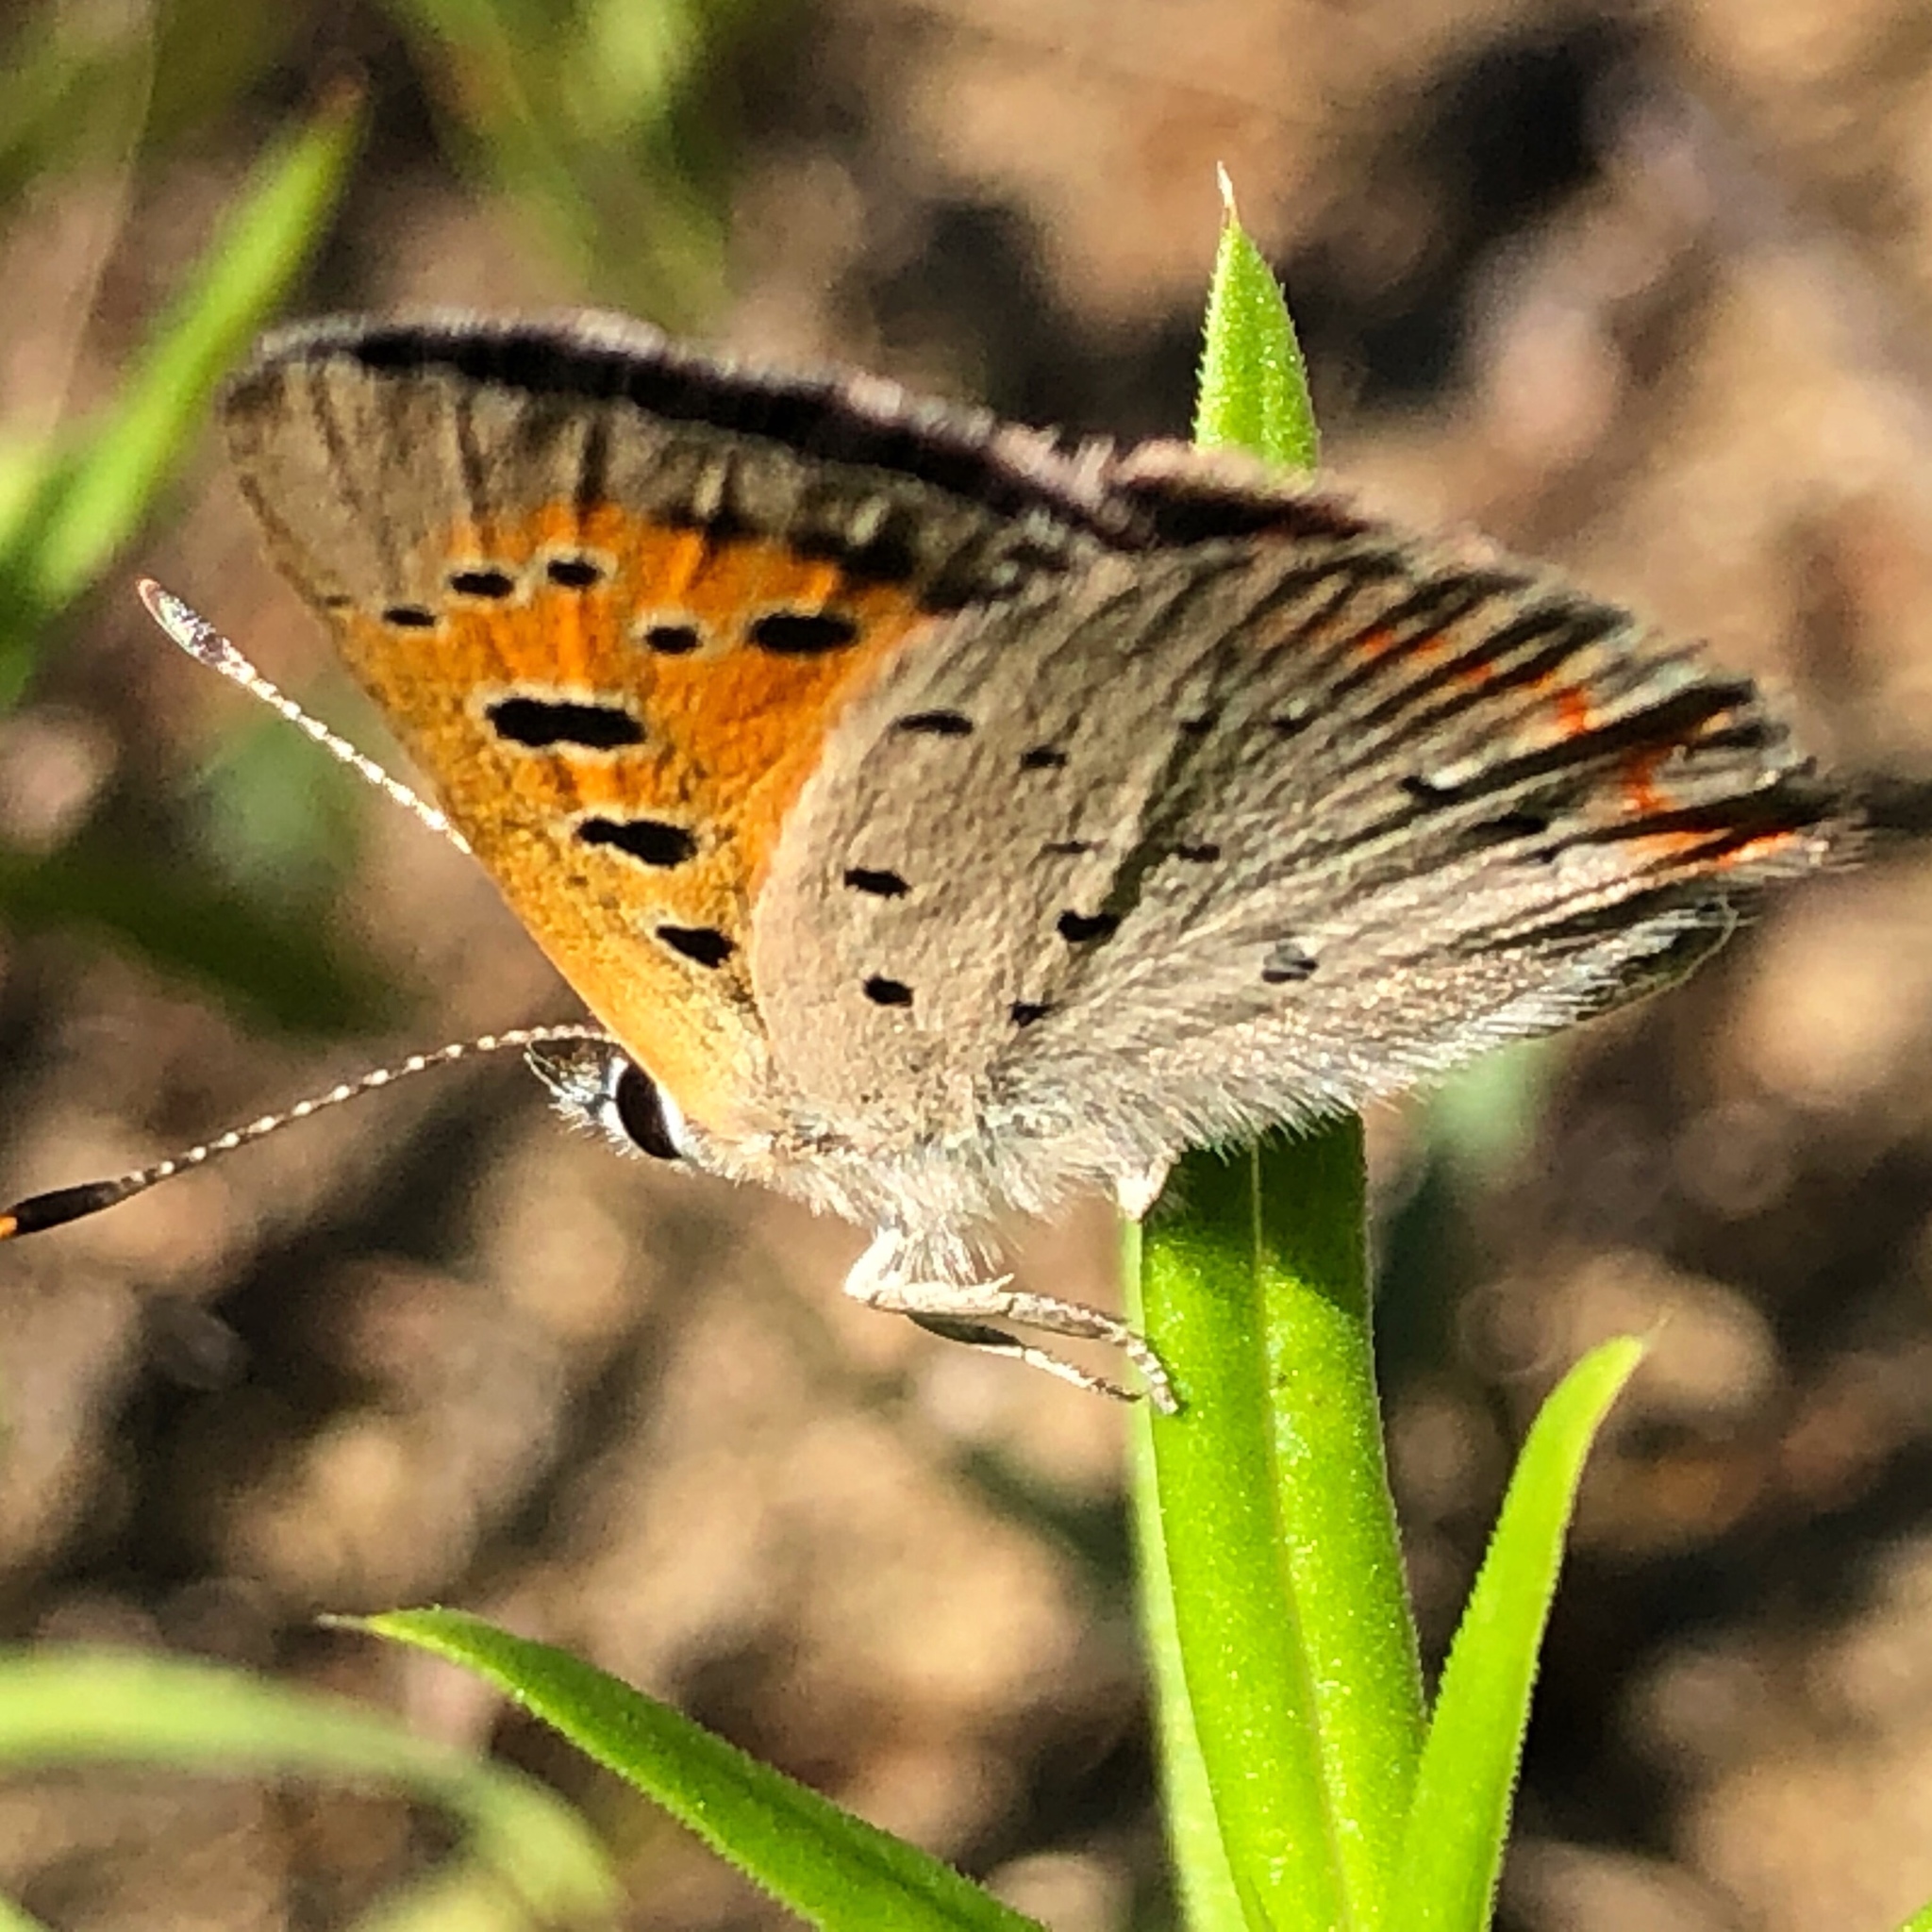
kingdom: Animalia
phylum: Arthropoda
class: Insecta
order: Lepidoptera
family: Lycaenidae
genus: Lycaena
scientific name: Lycaena hypophlaeas
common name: American copper
